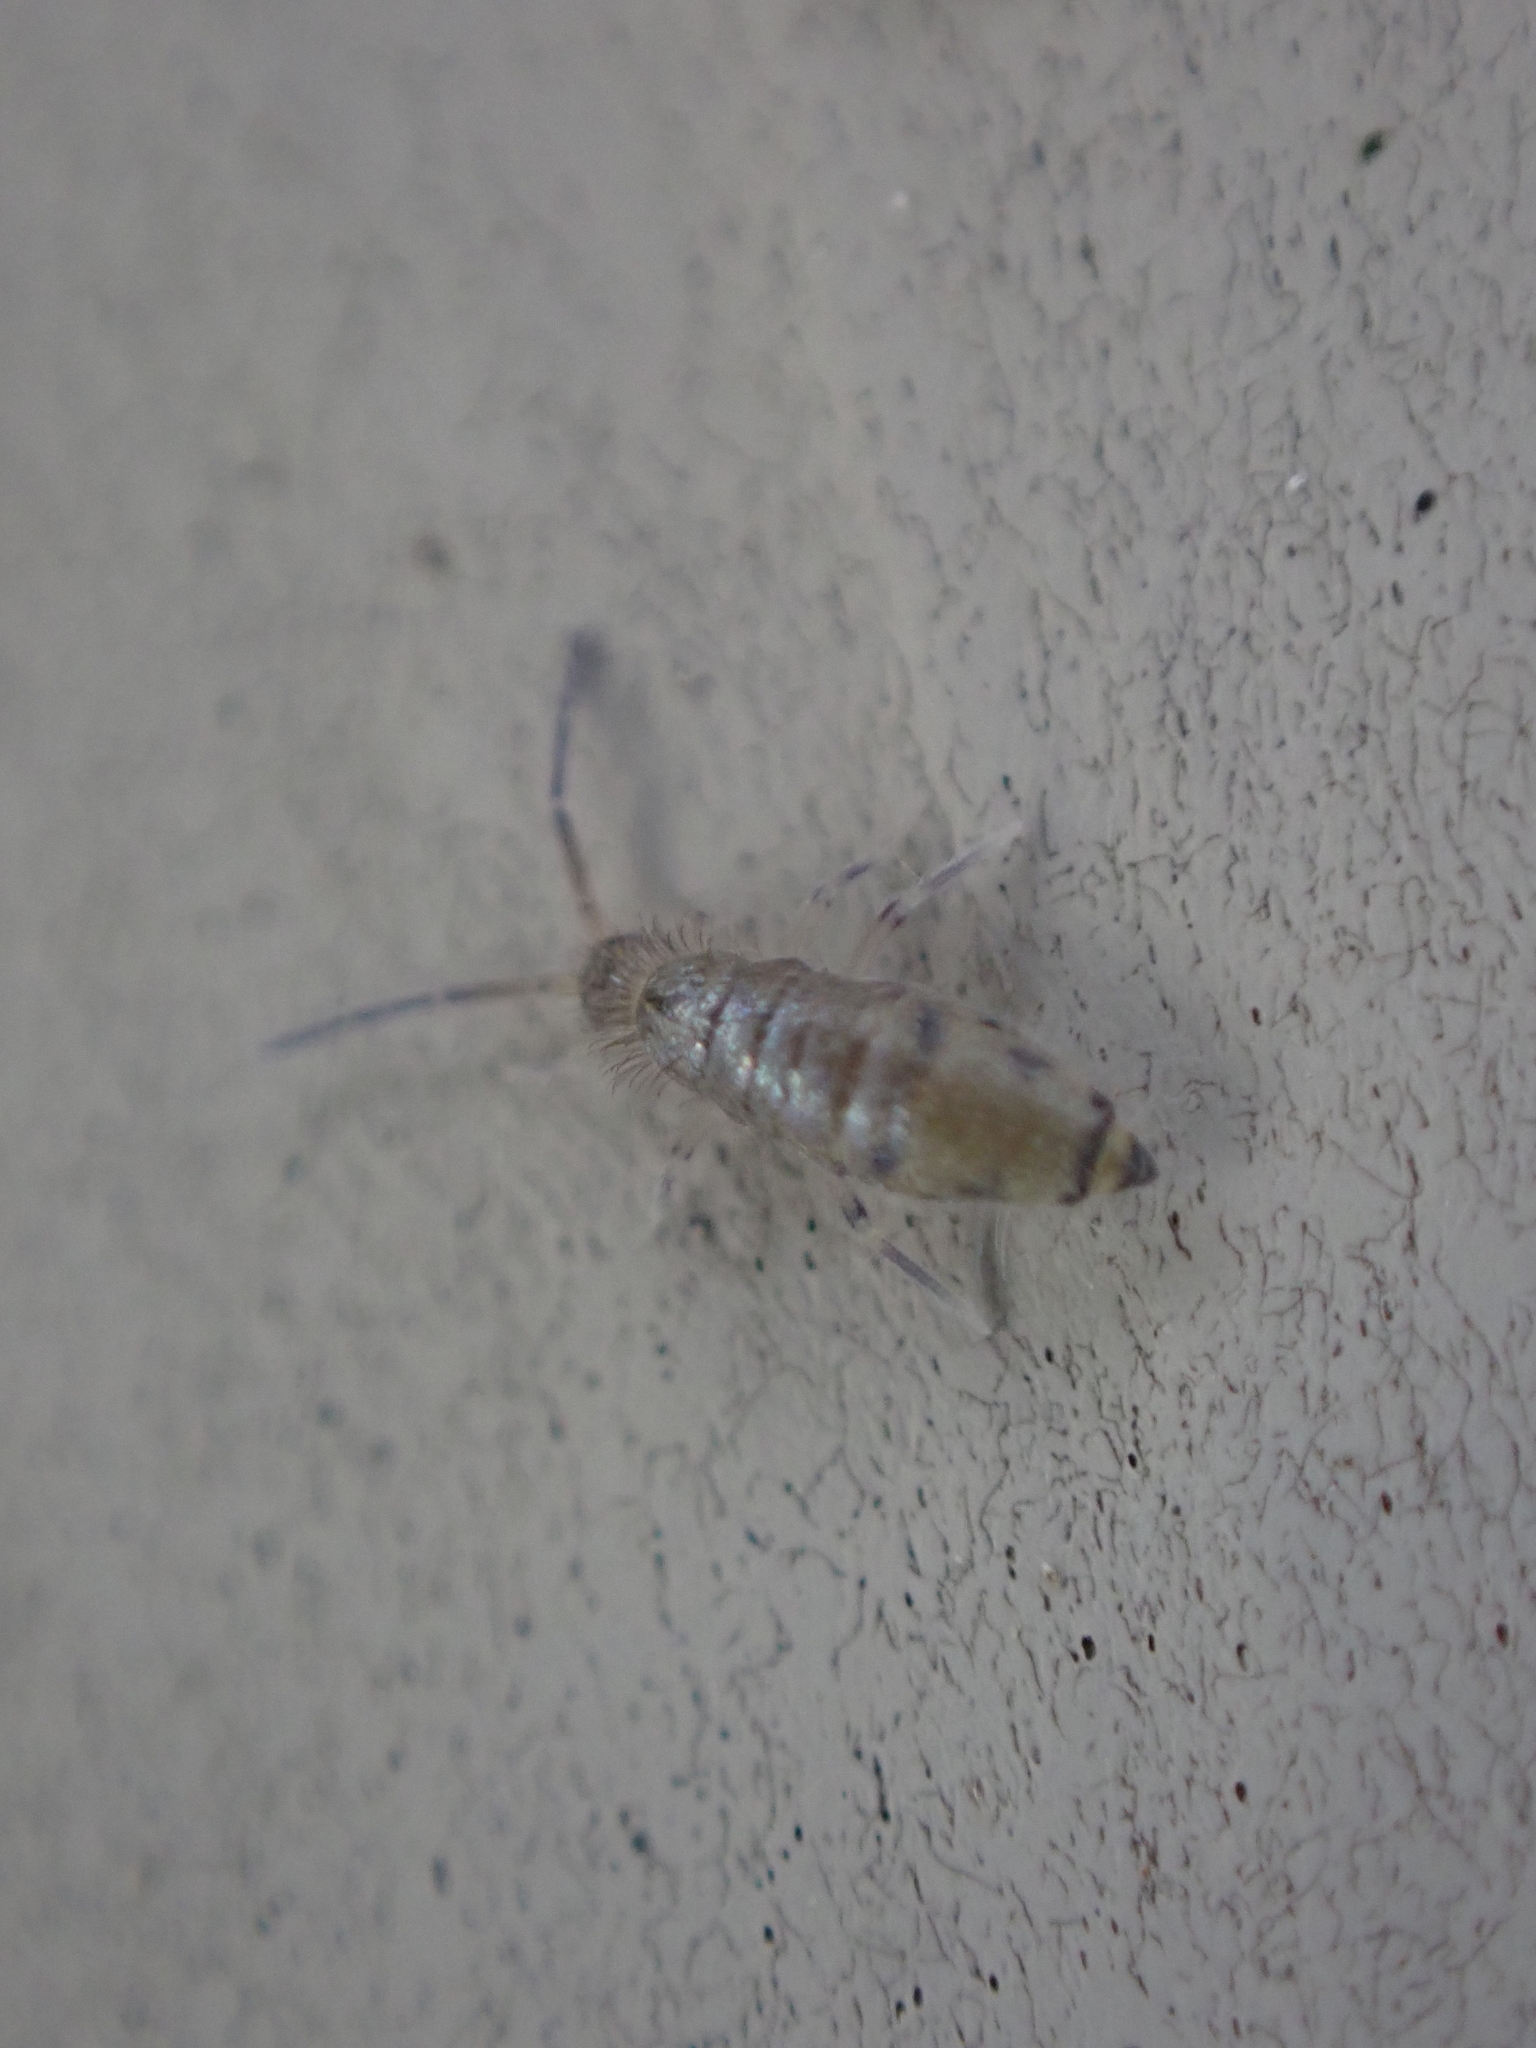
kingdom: Animalia
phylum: Arthropoda
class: Collembola
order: Entomobryomorpha
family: Entomobryidae
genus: Willowsia
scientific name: Willowsia nigromaculata
